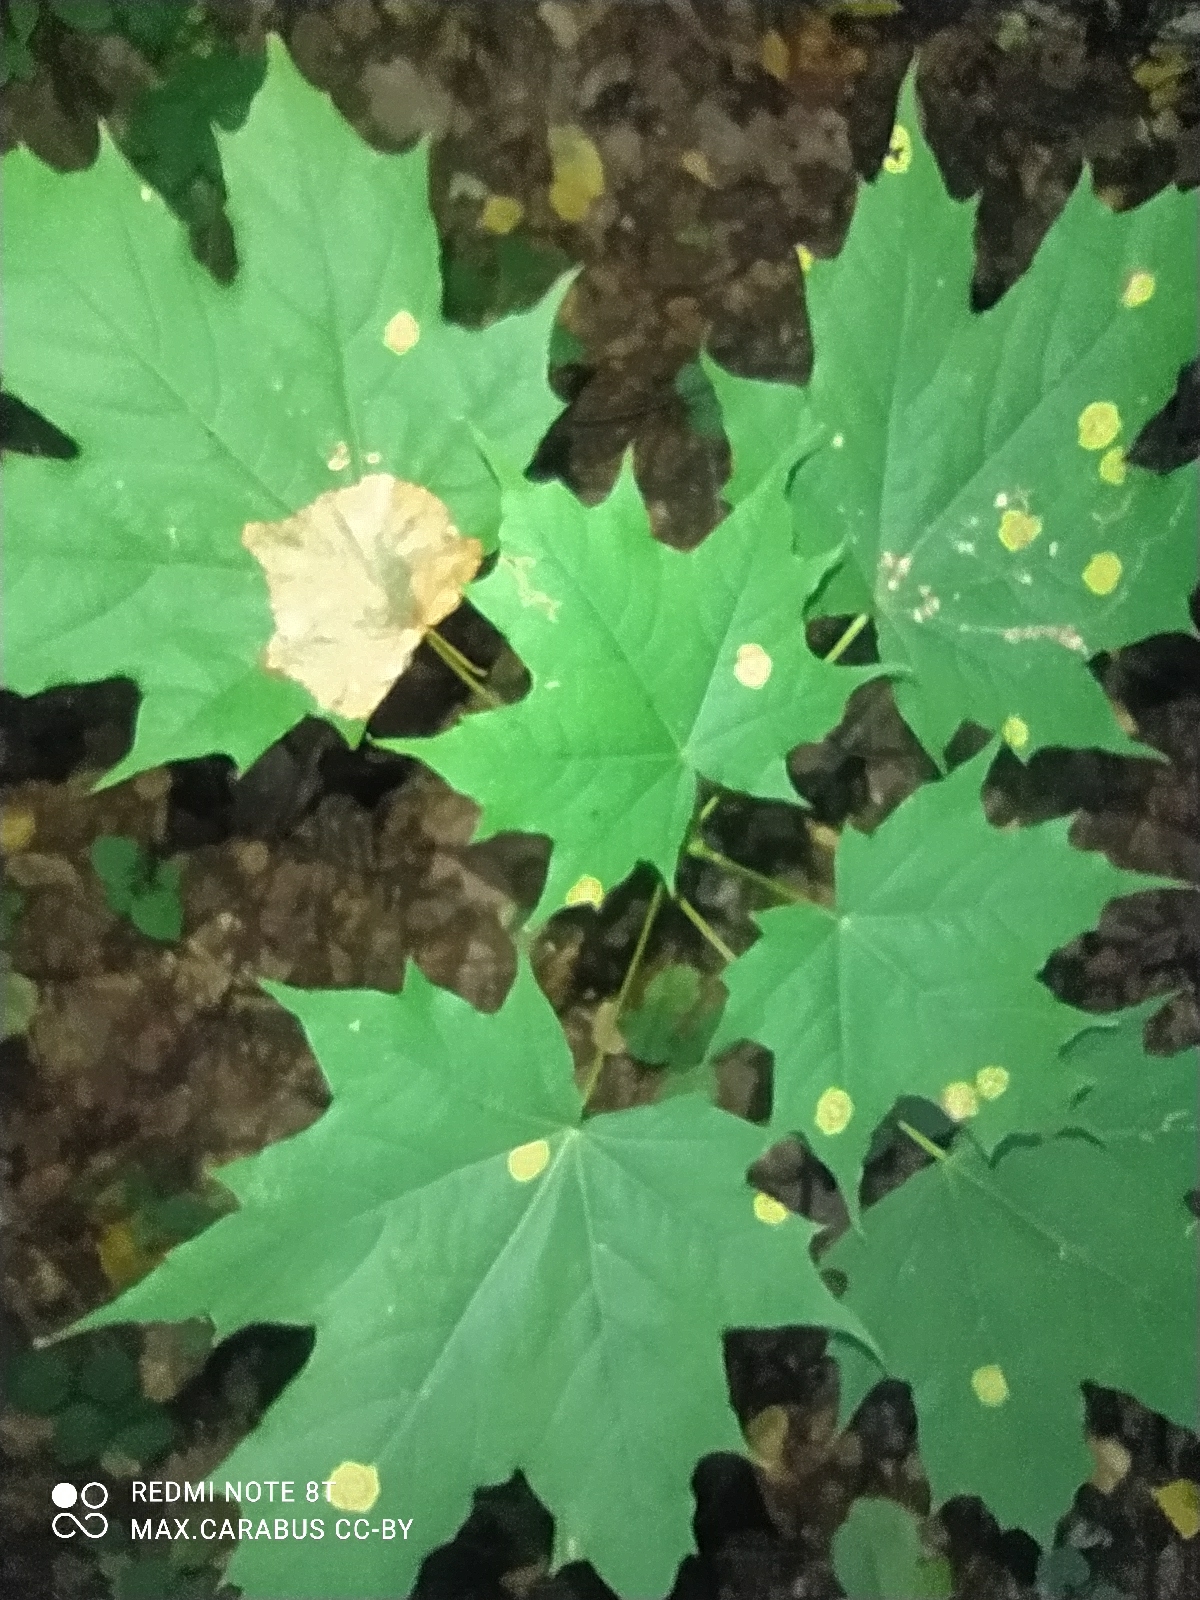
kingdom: Plantae
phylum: Tracheophyta
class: Magnoliopsida
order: Sapindales
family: Sapindaceae
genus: Acer
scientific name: Acer platanoides
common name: Norway maple
